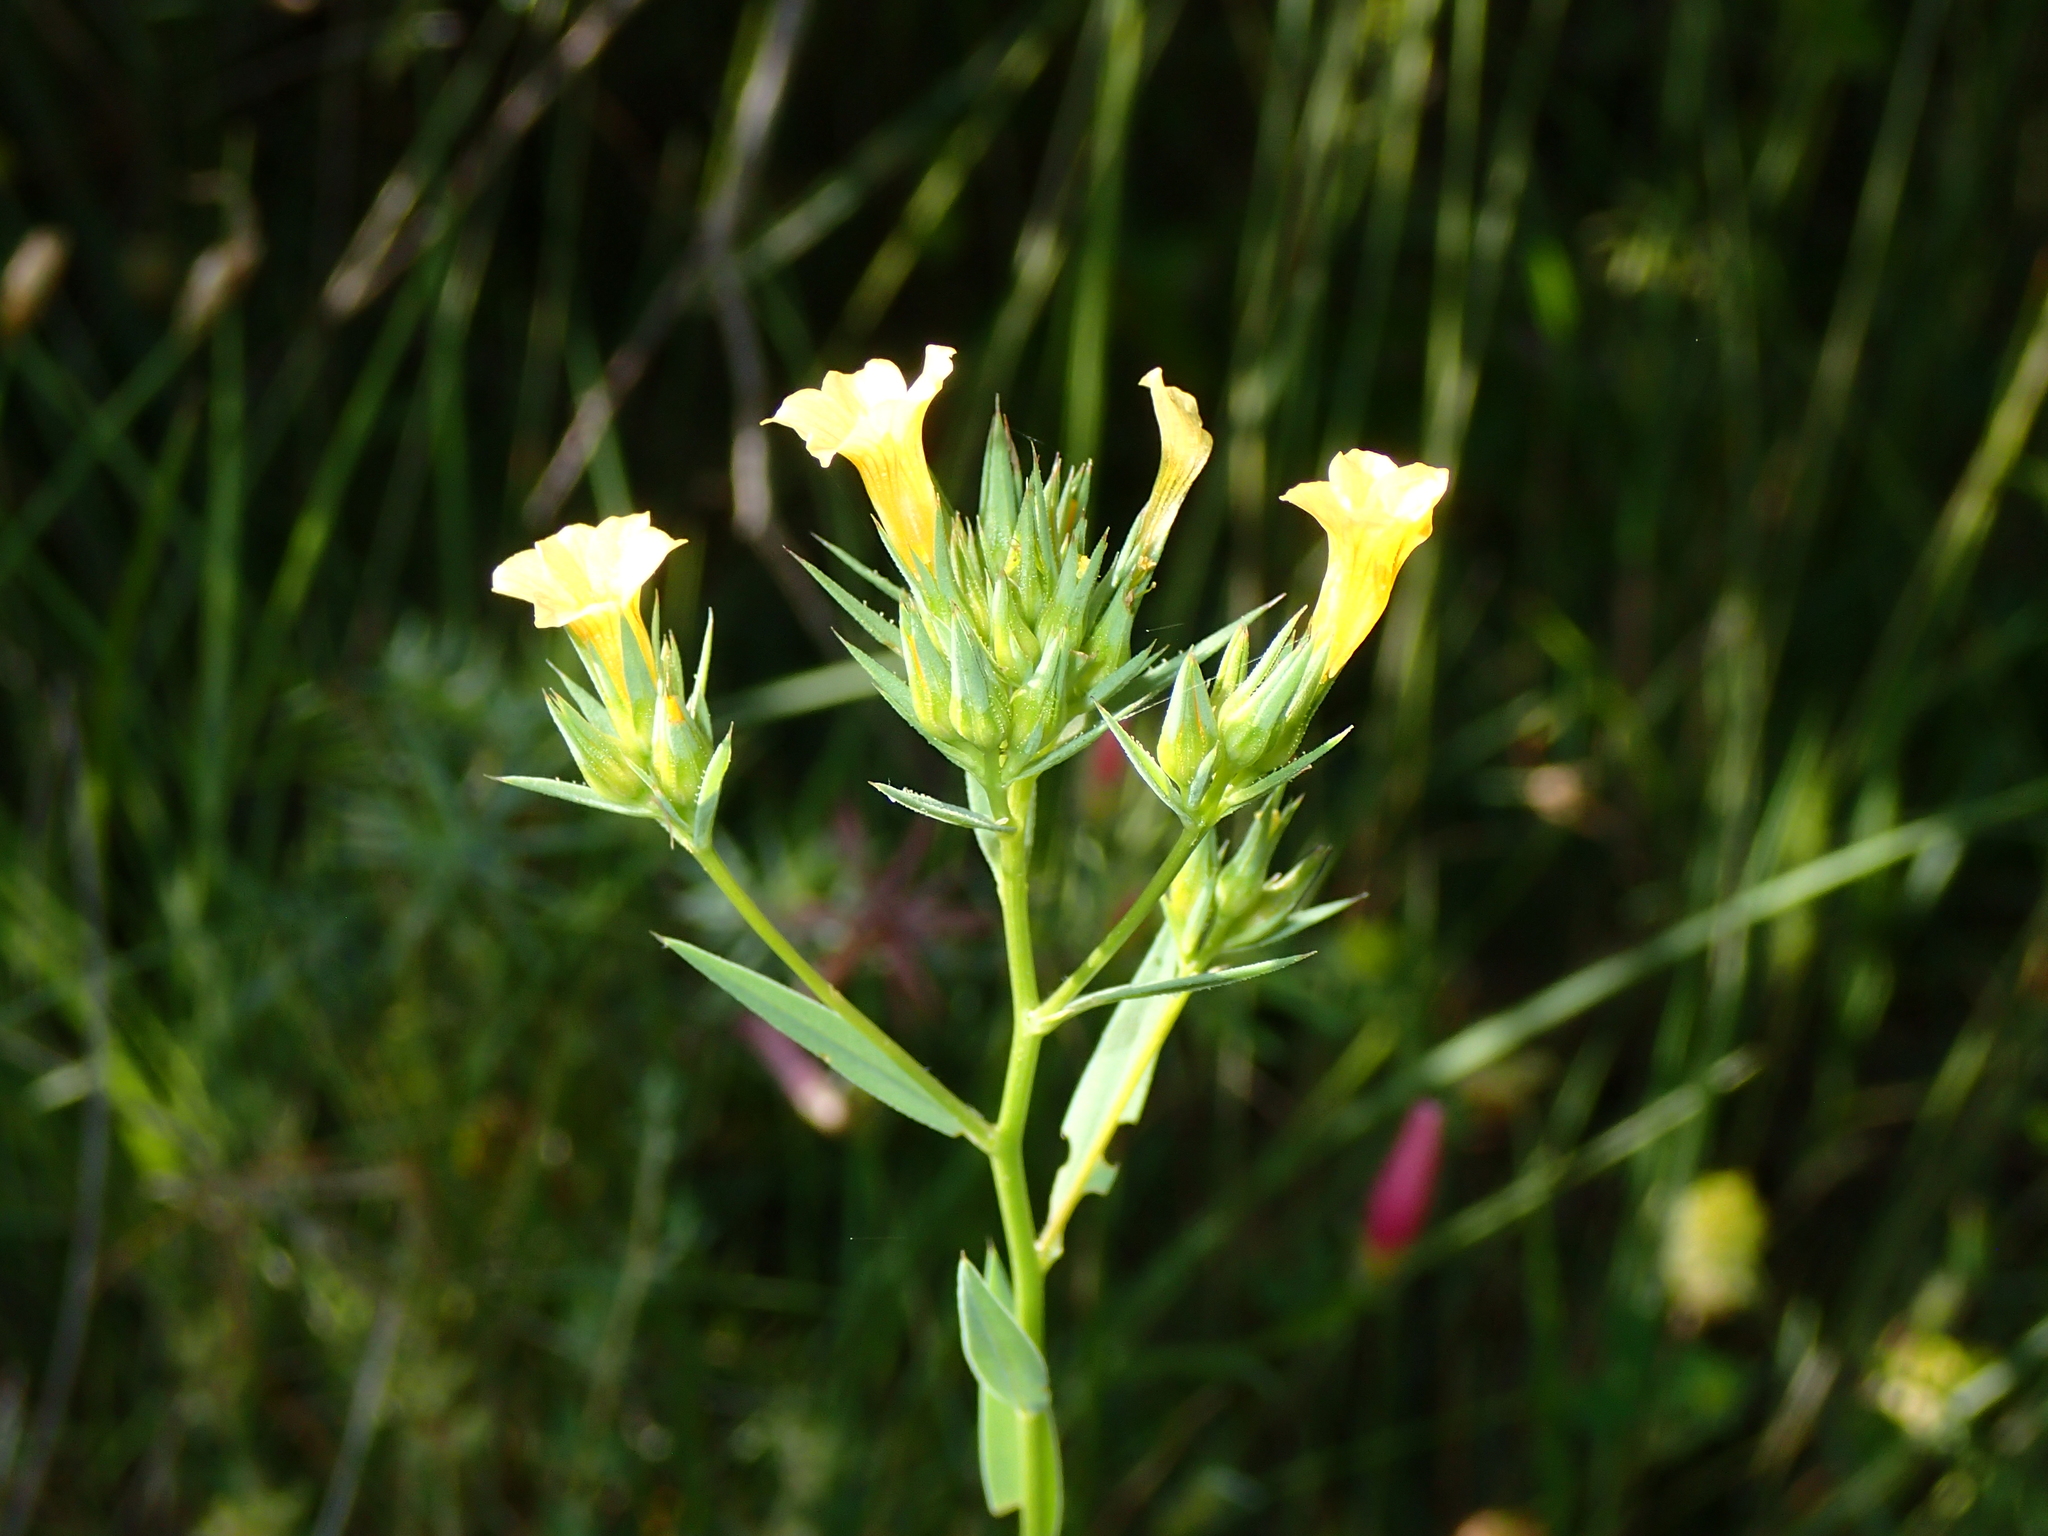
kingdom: Plantae
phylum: Tracheophyta
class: Magnoliopsida
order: Malpighiales
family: Linaceae
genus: Linum
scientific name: Linum strictum
